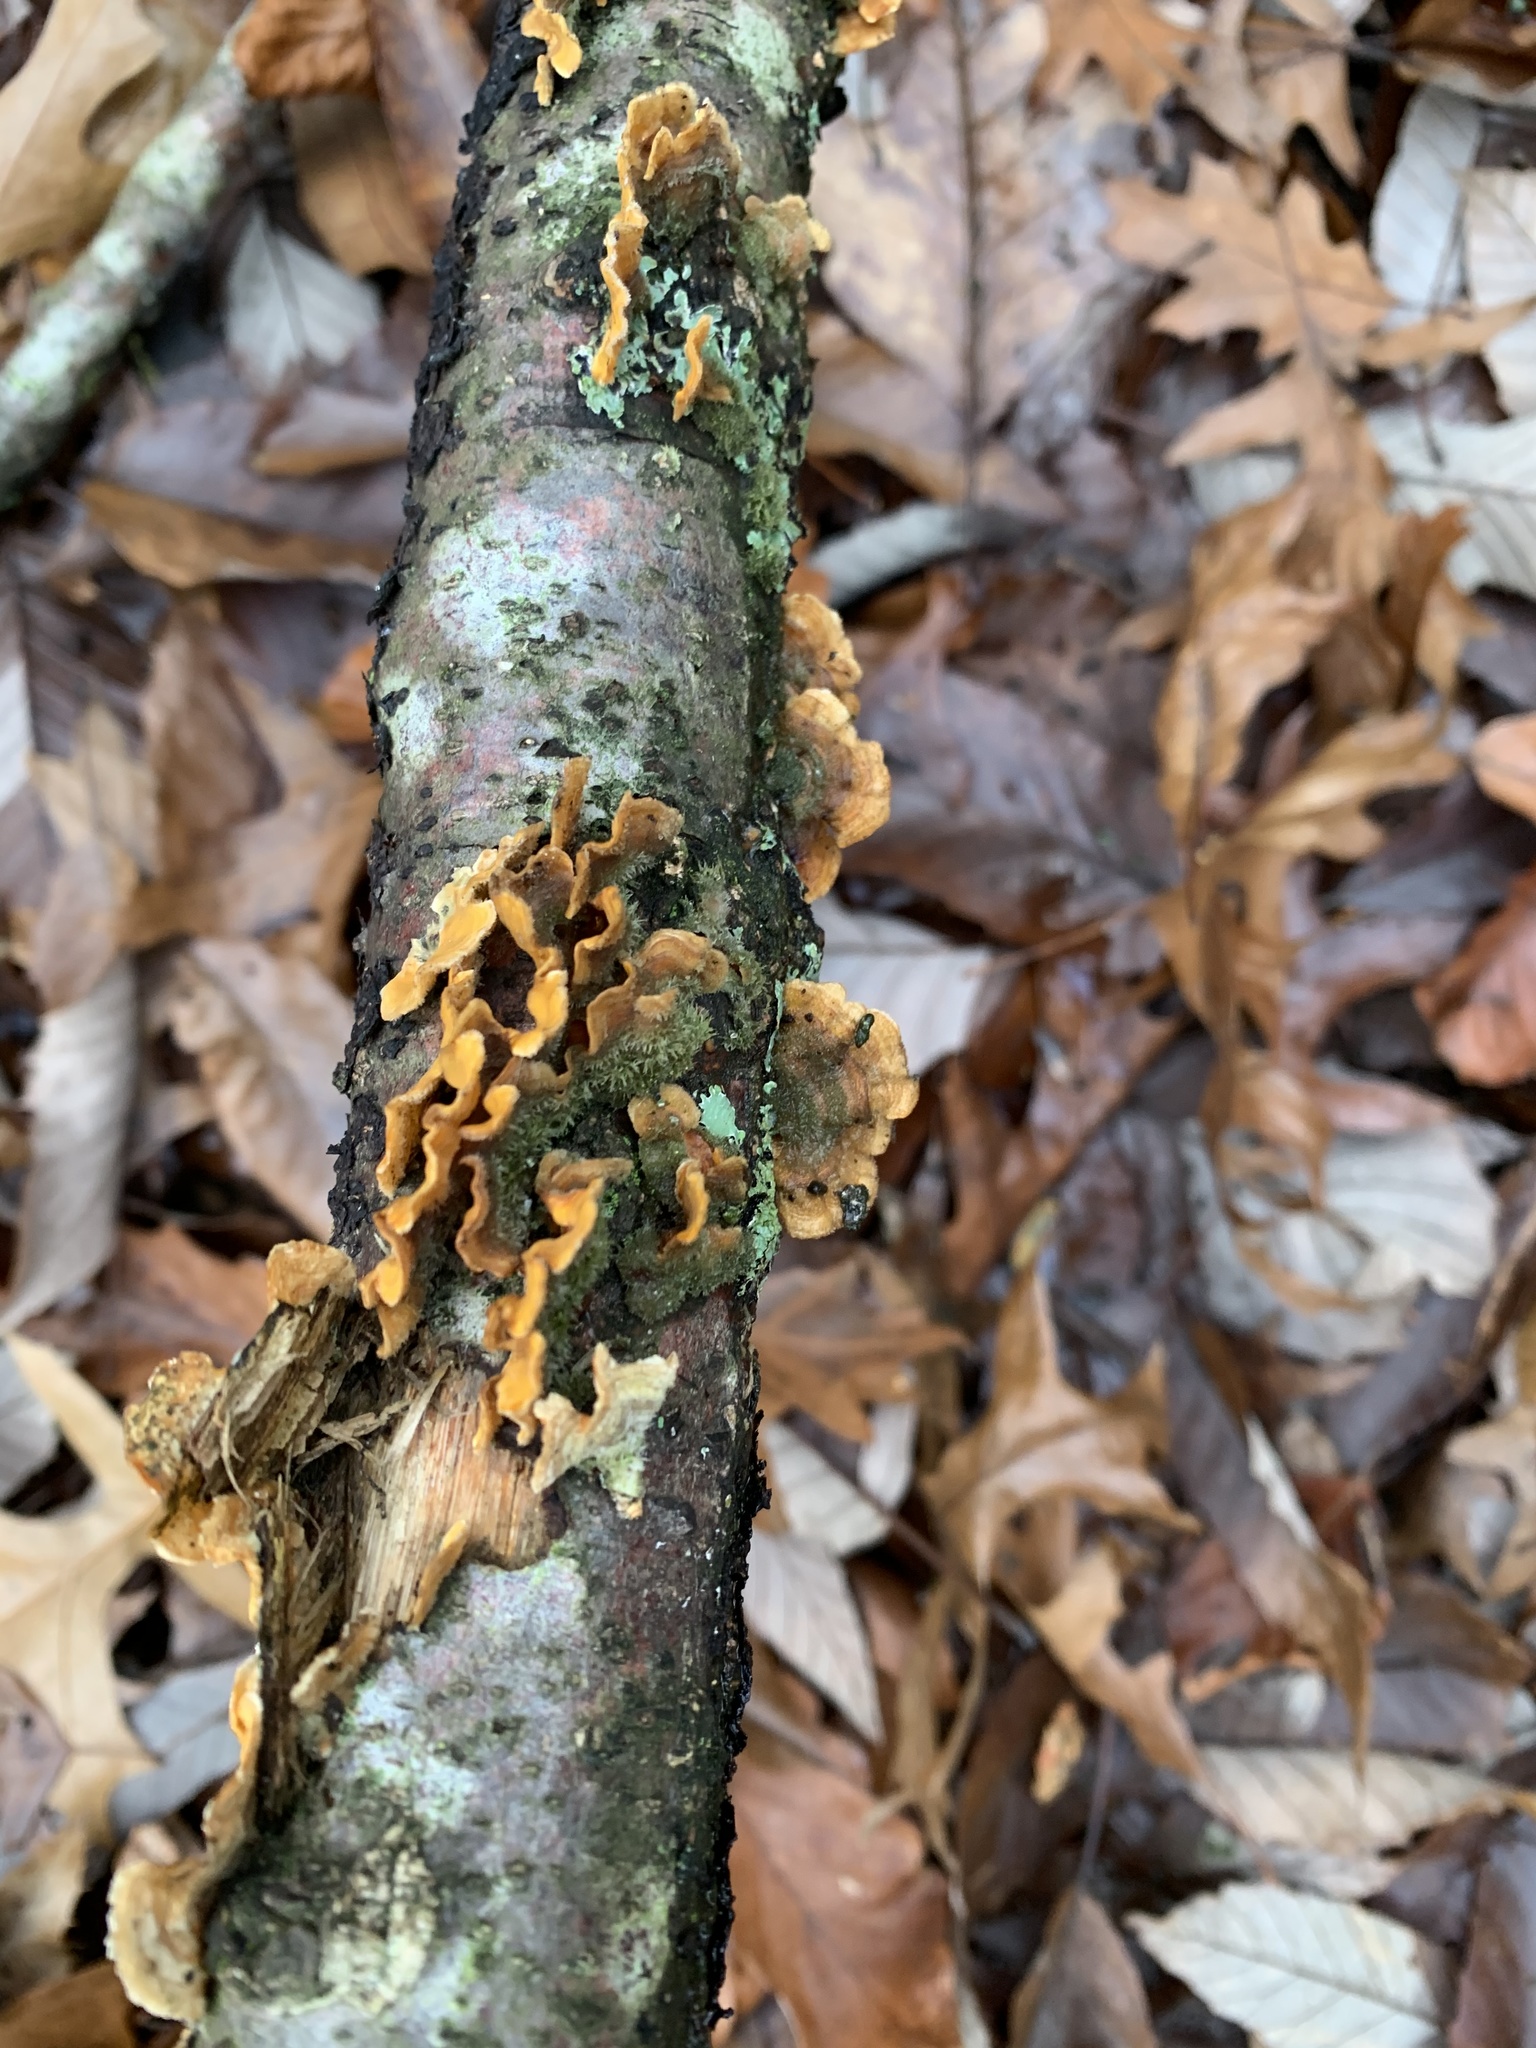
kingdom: Fungi
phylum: Basidiomycota
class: Agaricomycetes
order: Russulales
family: Stereaceae
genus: Stereum
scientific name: Stereum hirsutum
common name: Hairy curtain crust
